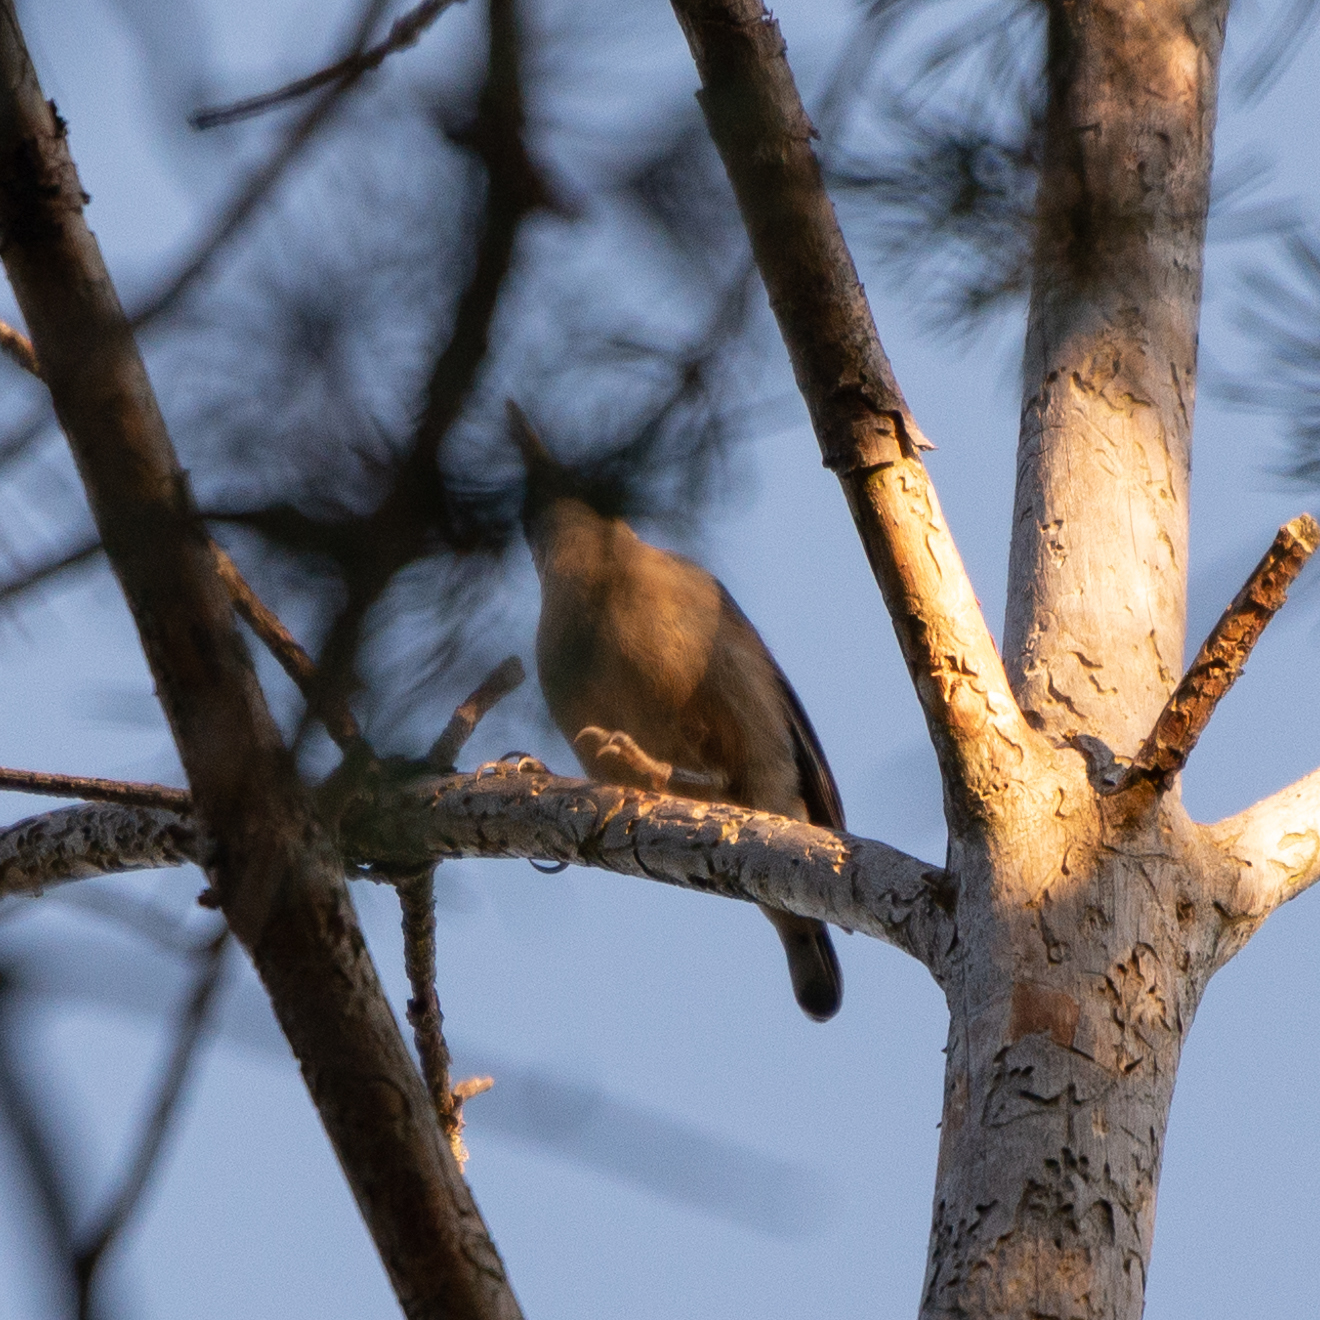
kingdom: Animalia
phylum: Chordata
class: Aves
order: Passeriformes
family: Sittidae
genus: Sitta
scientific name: Sitta europaea
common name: Eurasian nuthatch
